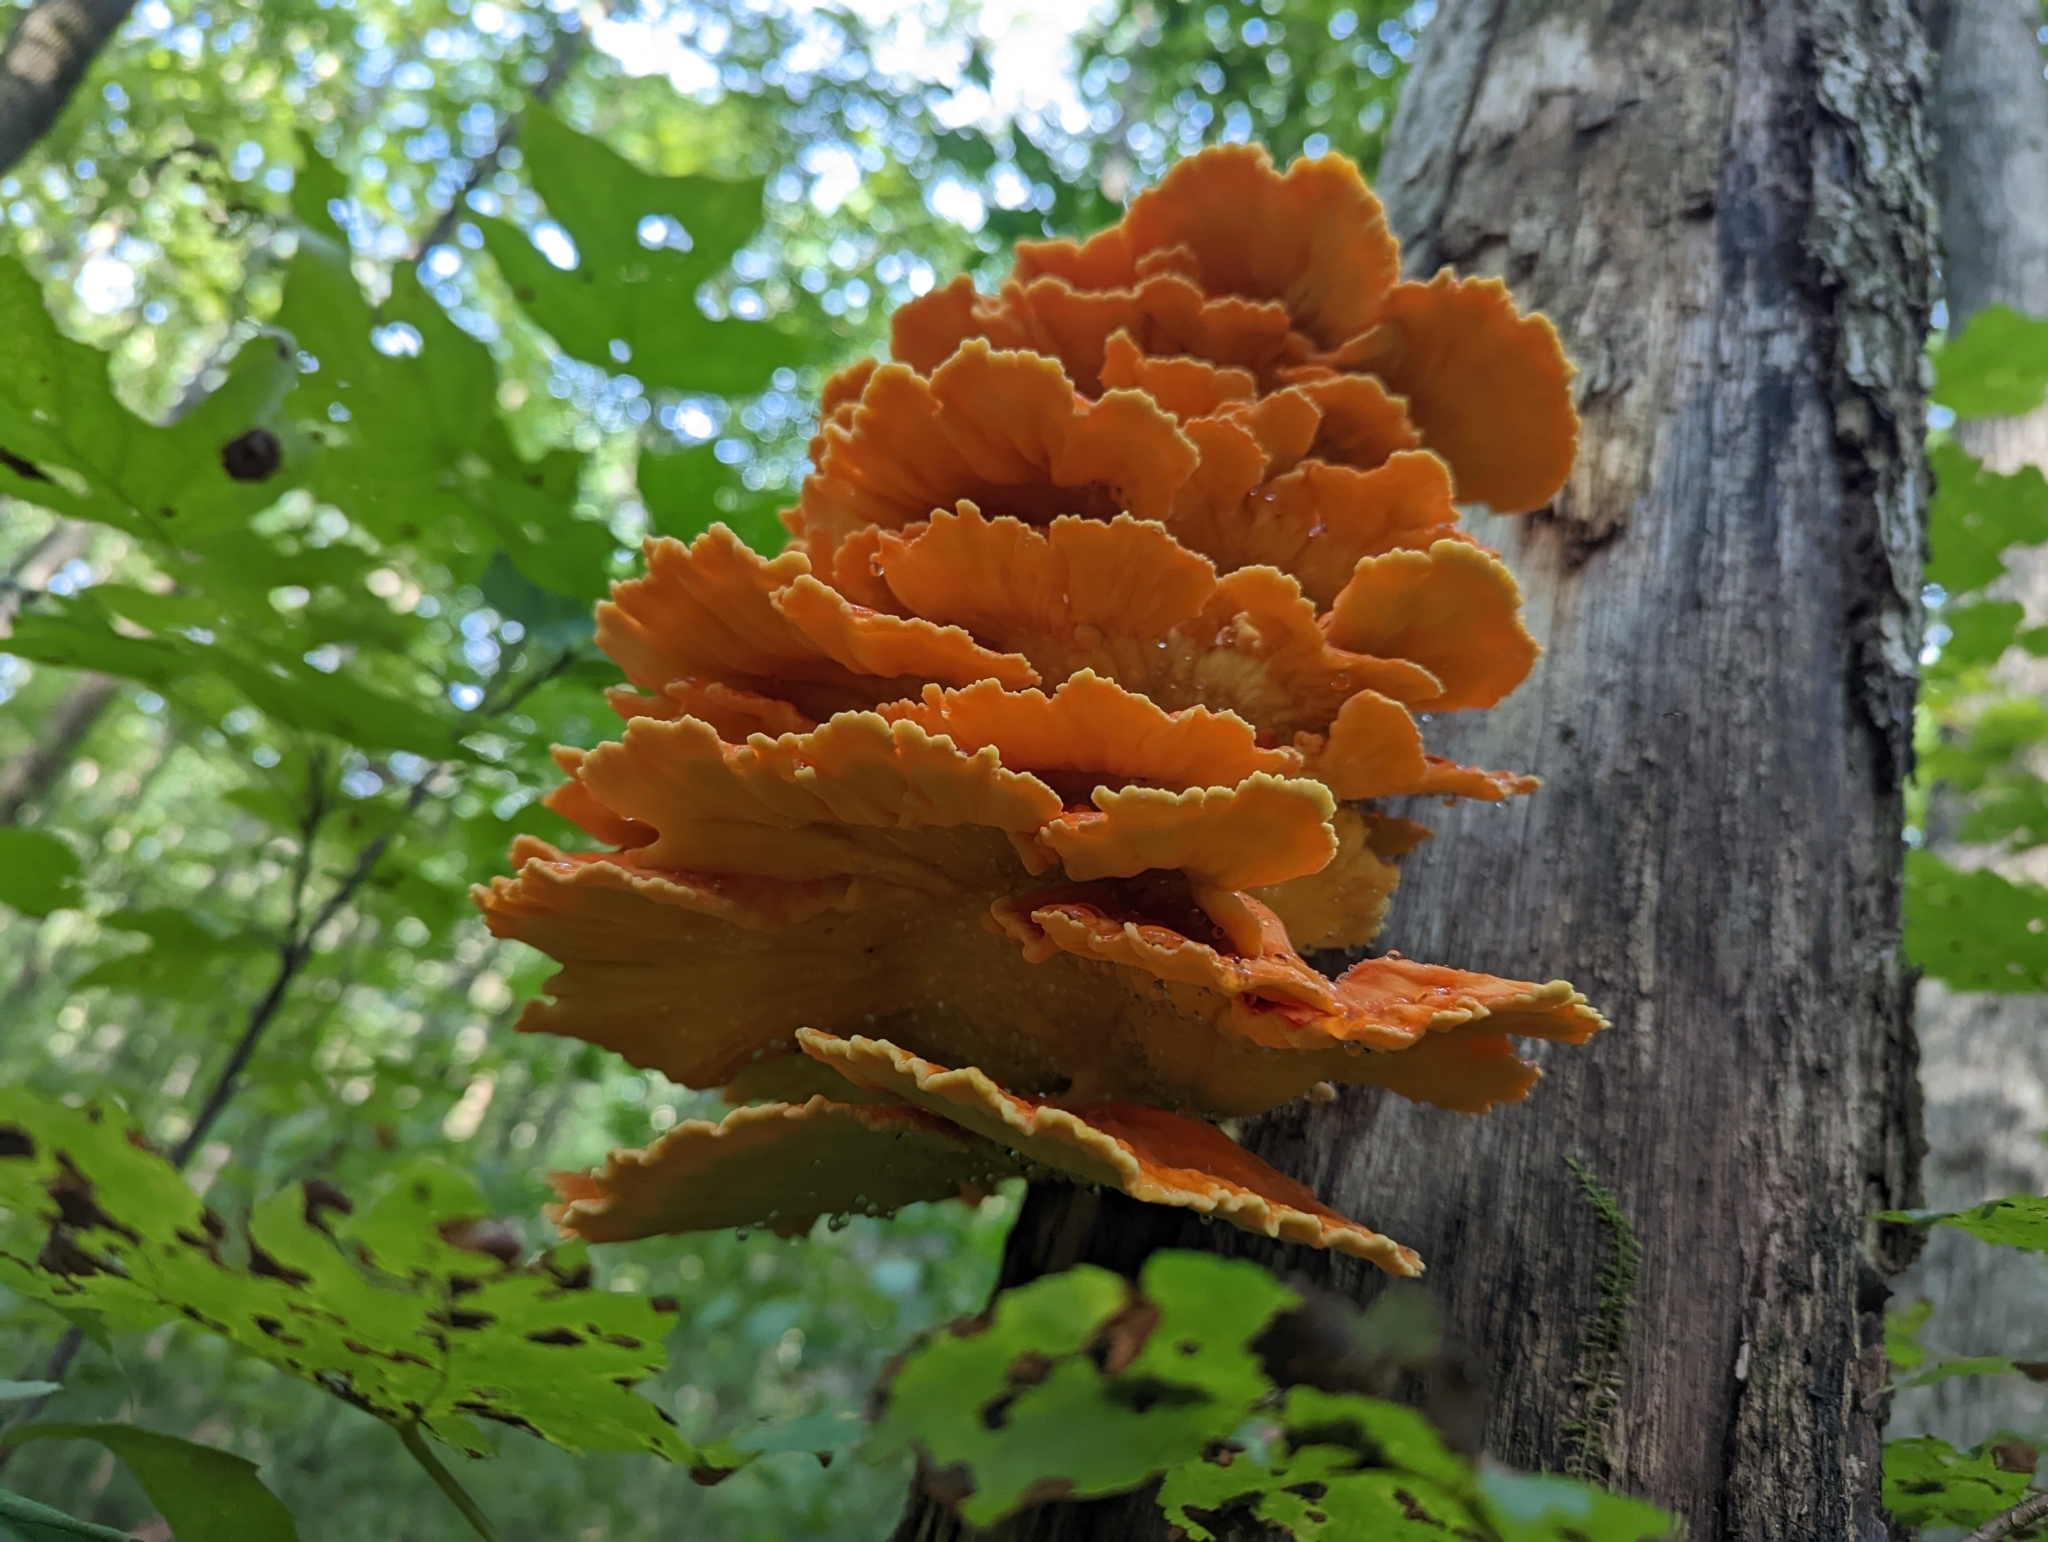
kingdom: Fungi
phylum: Basidiomycota
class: Agaricomycetes
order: Polyporales
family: Laetiporaceae
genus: Laetiporus
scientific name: Laetiporus sulphureus
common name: Chicken of the woods
